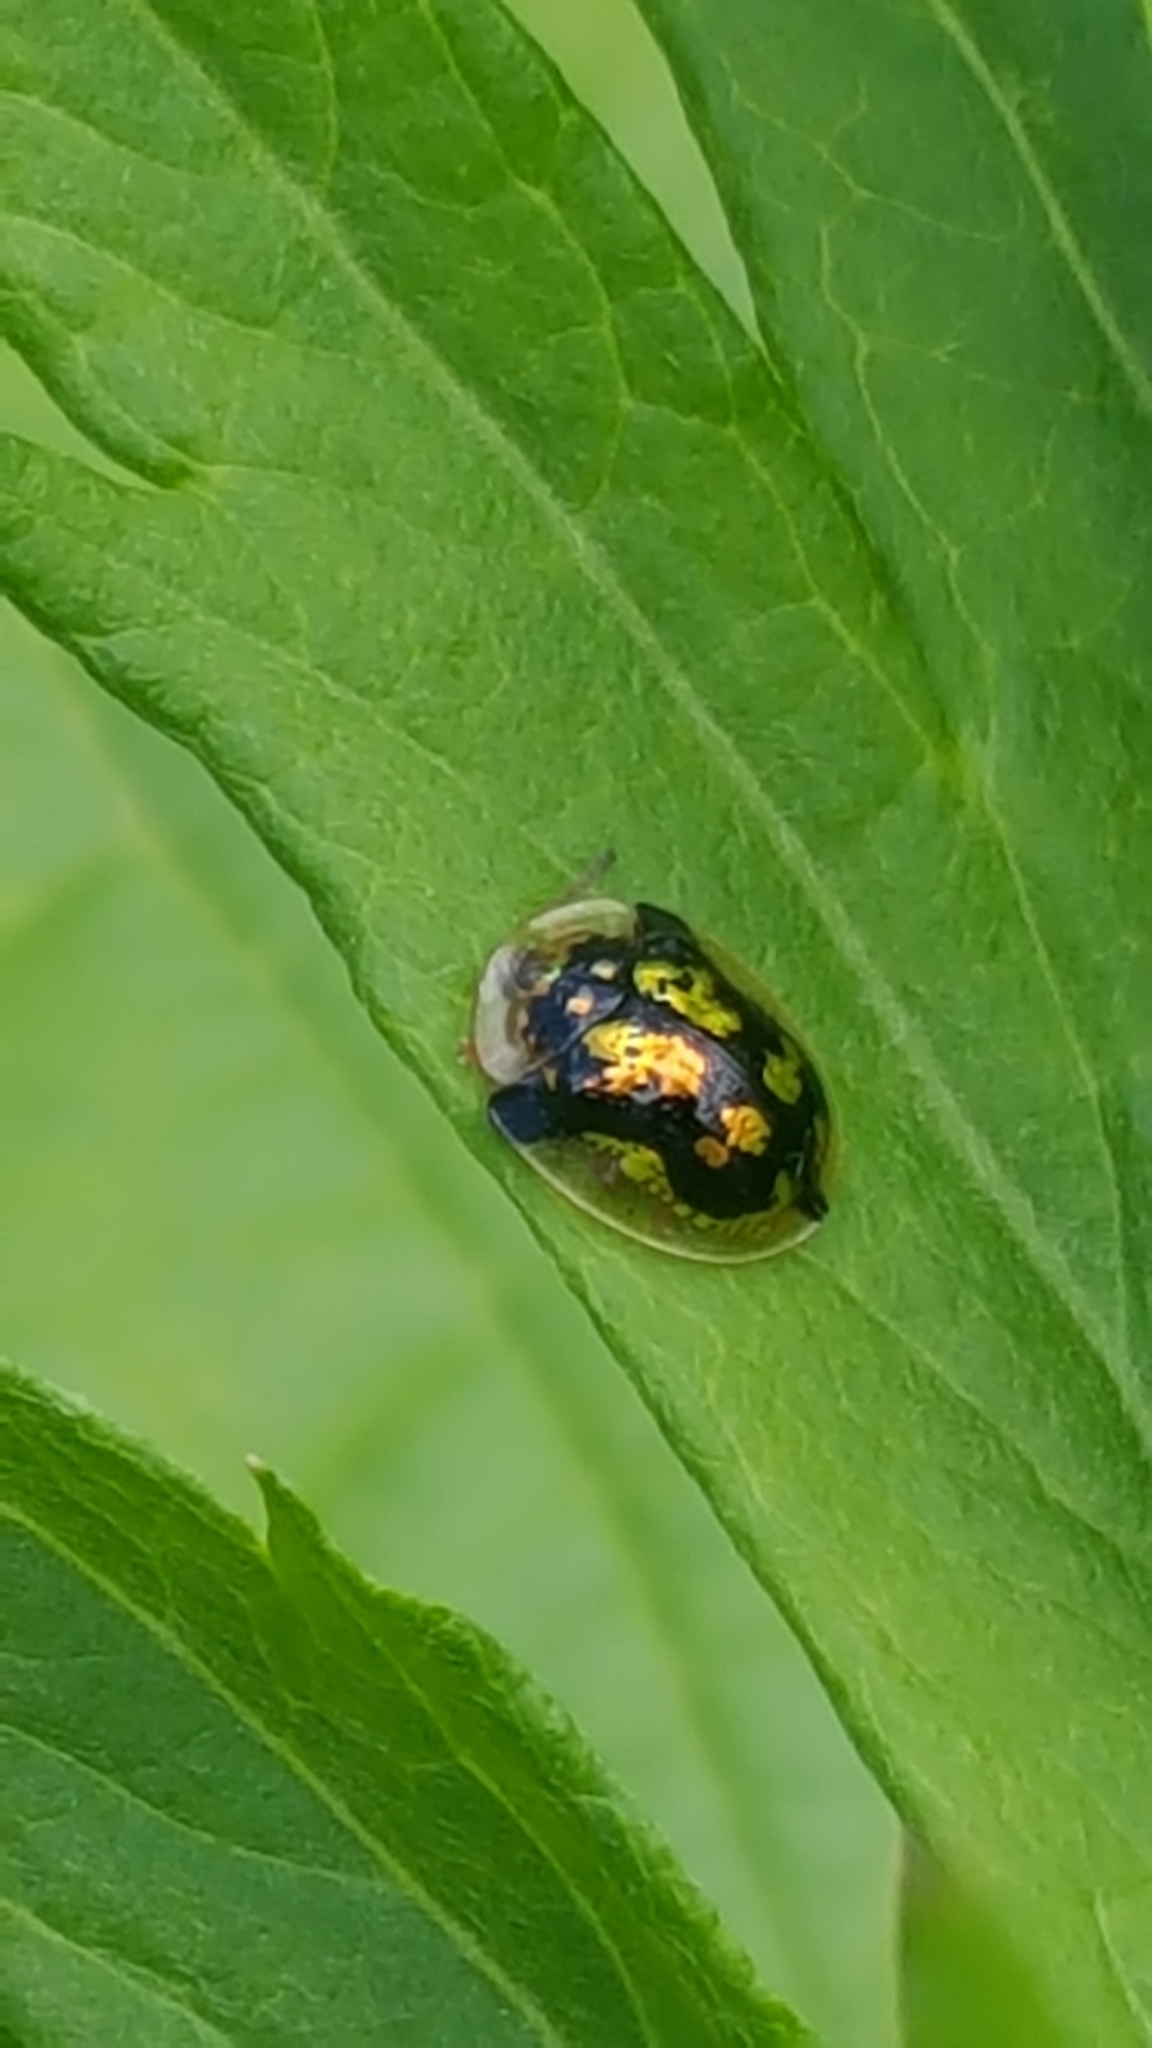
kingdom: Animalia
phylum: Arthropoda
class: Insecta
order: Coleoptera
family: Chrysomelidae
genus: Deloyala
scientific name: Deloyala guttata
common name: Mottled tortoise beetle
